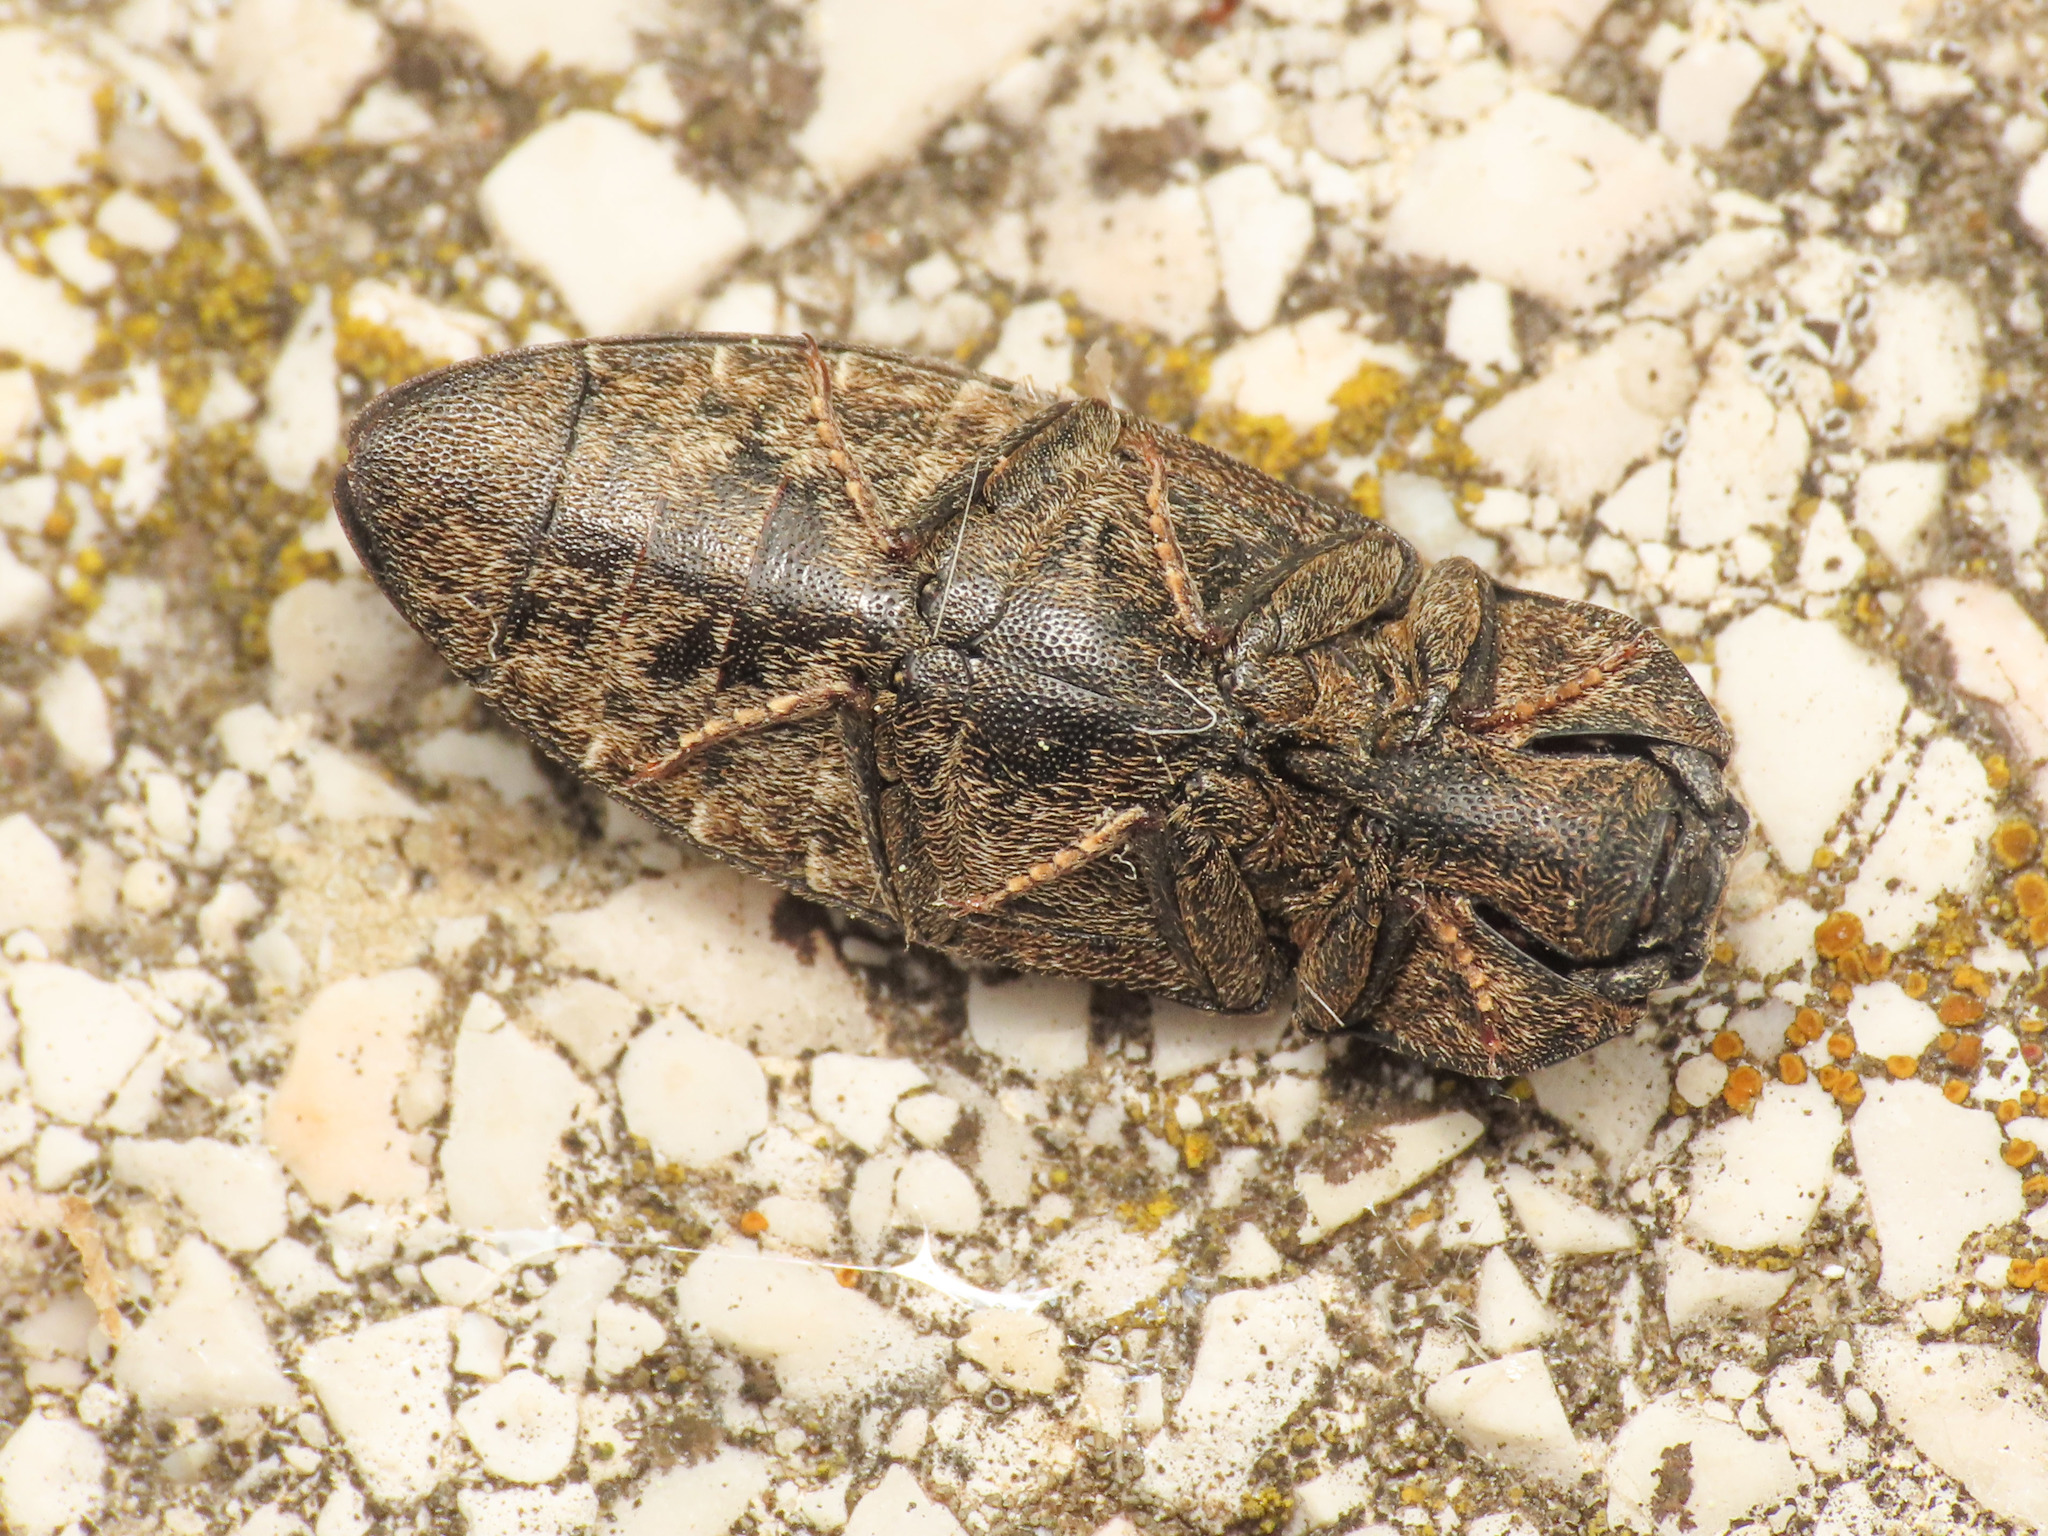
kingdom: Animalia
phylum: Arthropoda
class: Insecta
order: Coleoptera
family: Elateridae
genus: Agrypnus
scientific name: Agrypnus murinus
